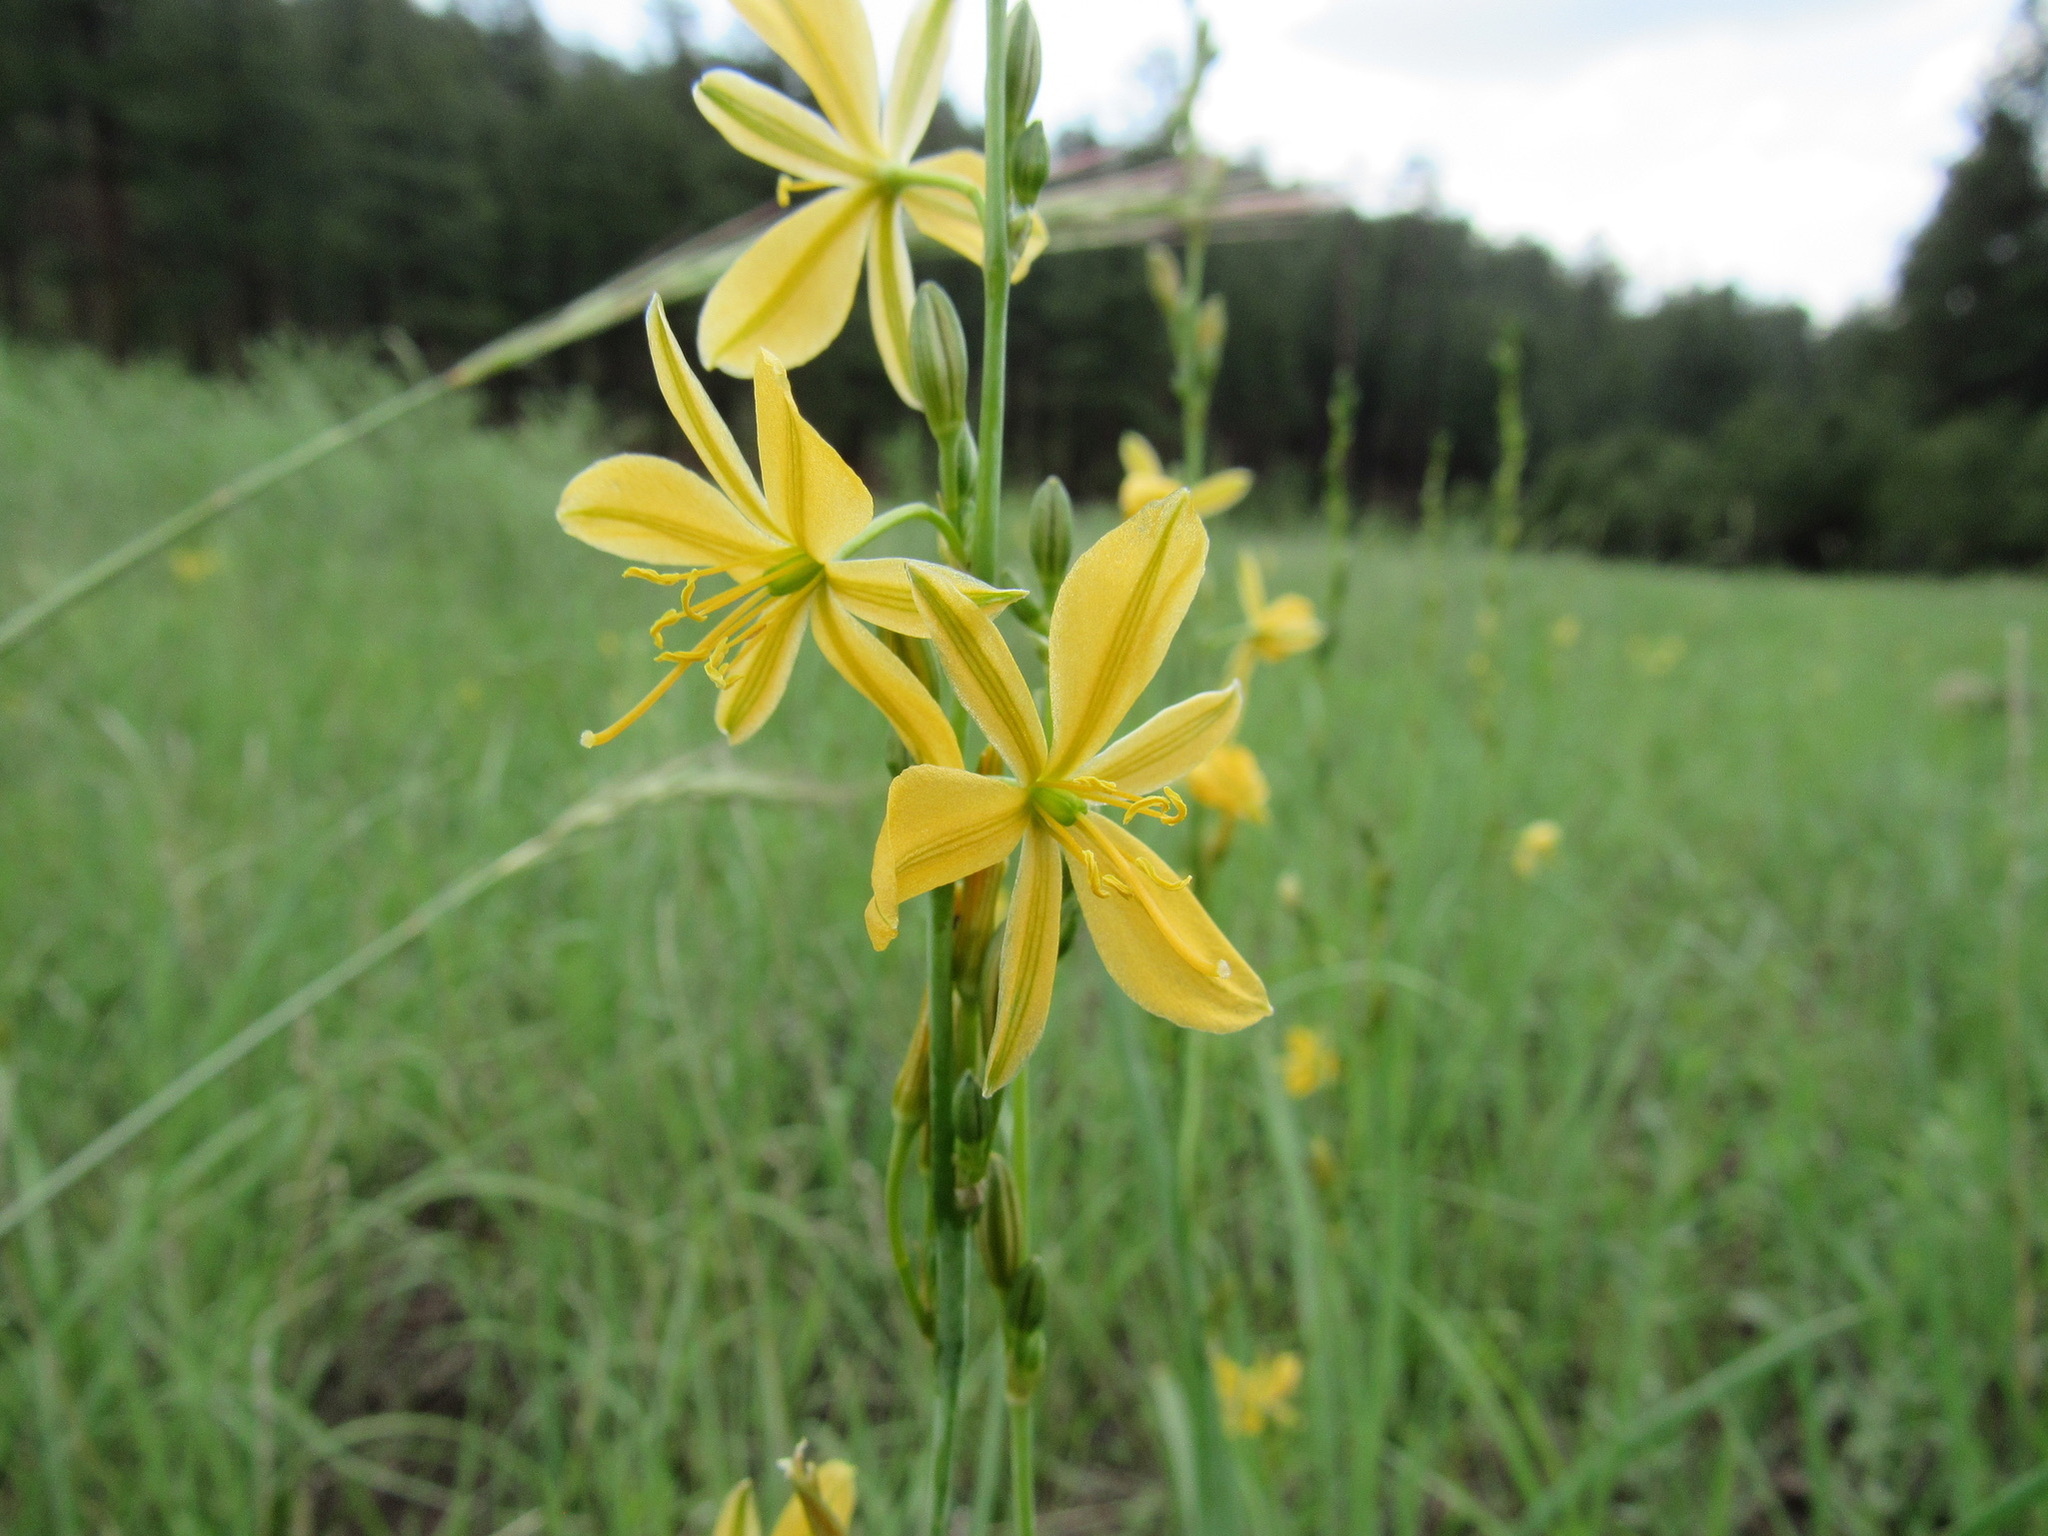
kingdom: Plantae
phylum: Tracheophyta
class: Liliopsida
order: Asparagales
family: Asparagaceae
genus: Echeandia
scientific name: Echeandia flavescens
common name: Amberlily
